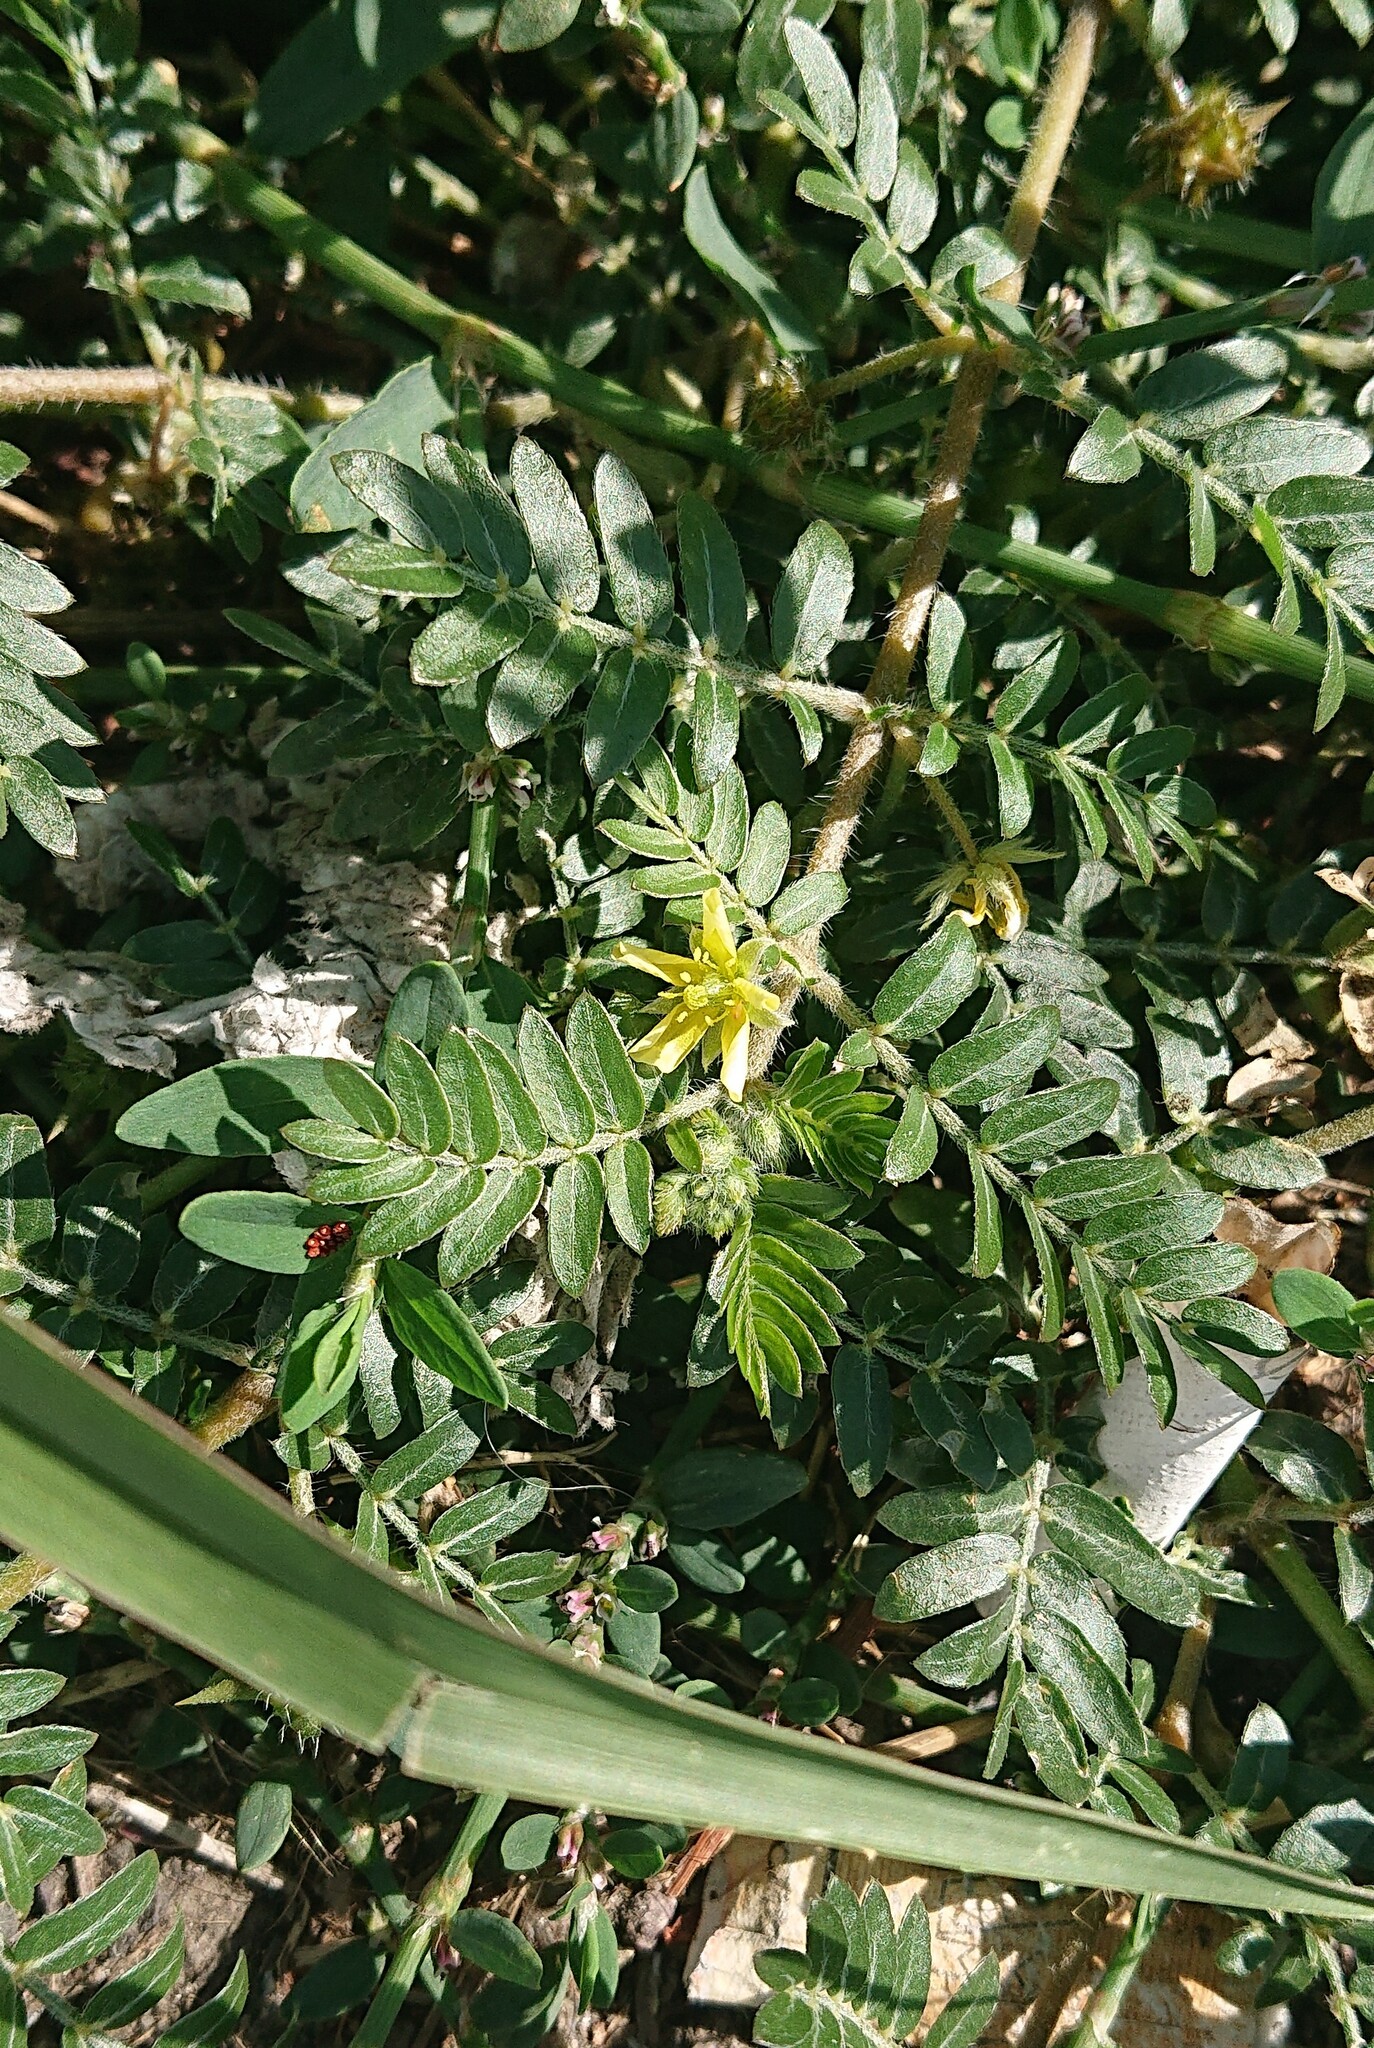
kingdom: Plantae
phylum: Tracheophyta
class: Magnoliopsida
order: Zygophyllales
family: Zygophyllaceae
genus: Tribulus
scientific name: Tribulus terrestris
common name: Puncturevine
